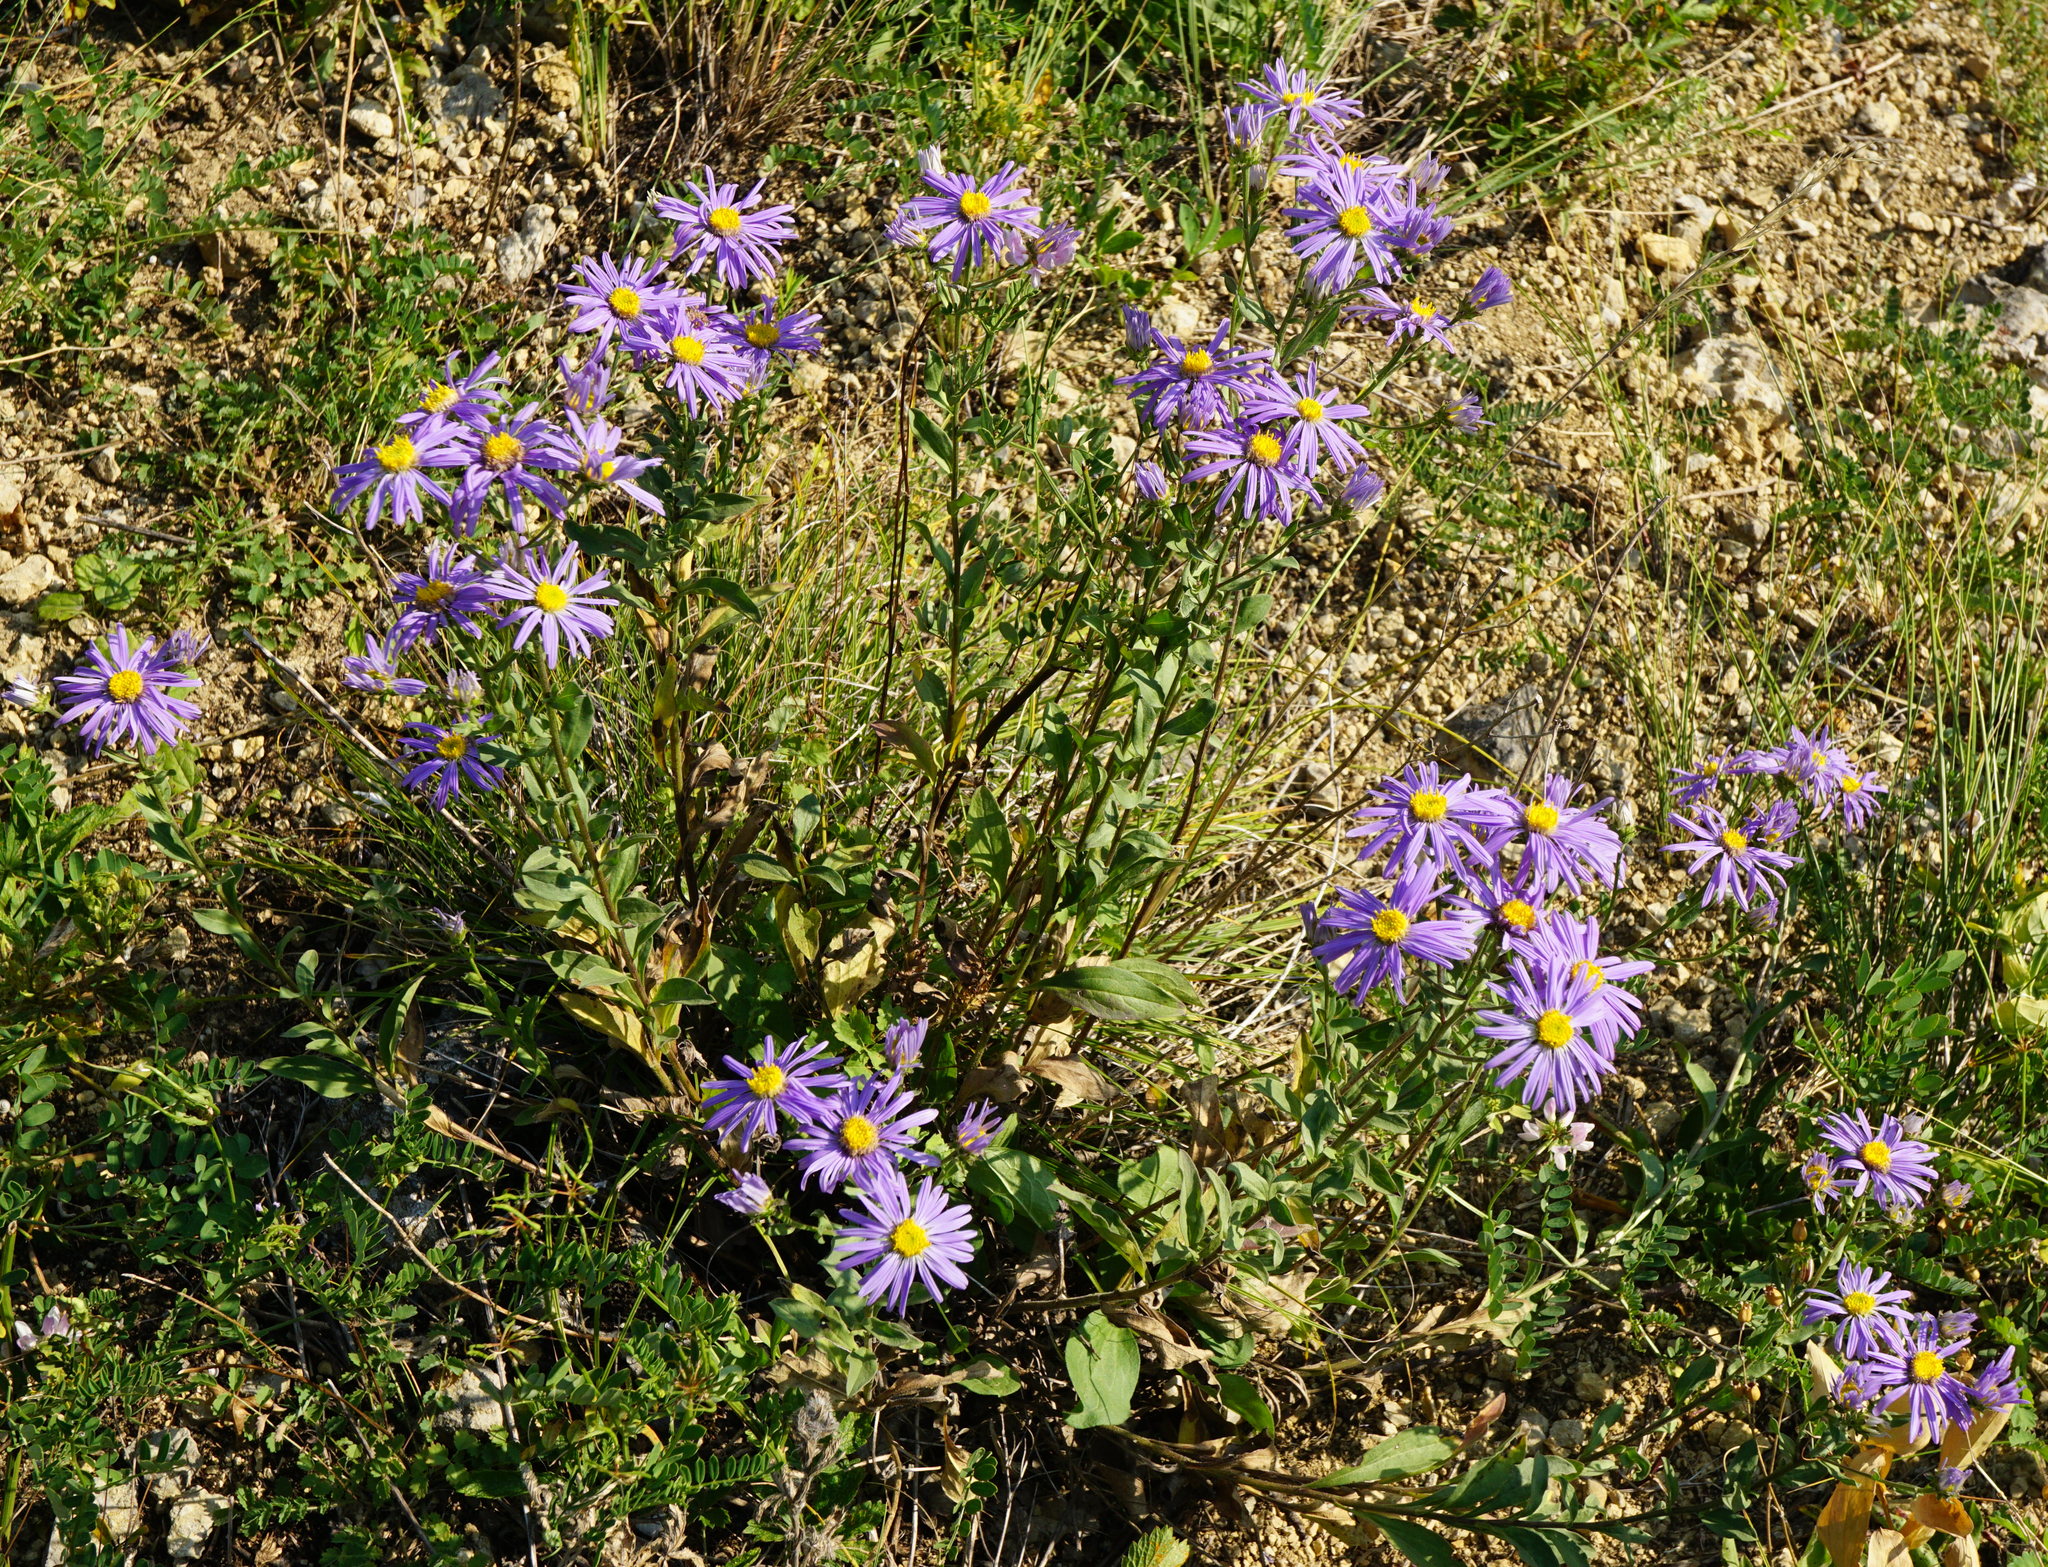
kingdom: Plantae
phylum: Tracheophyta
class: Magnoliopsida
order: Asterales
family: Asteraceae
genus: Aster
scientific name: Aster amellus
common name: European michaelmas daisy
